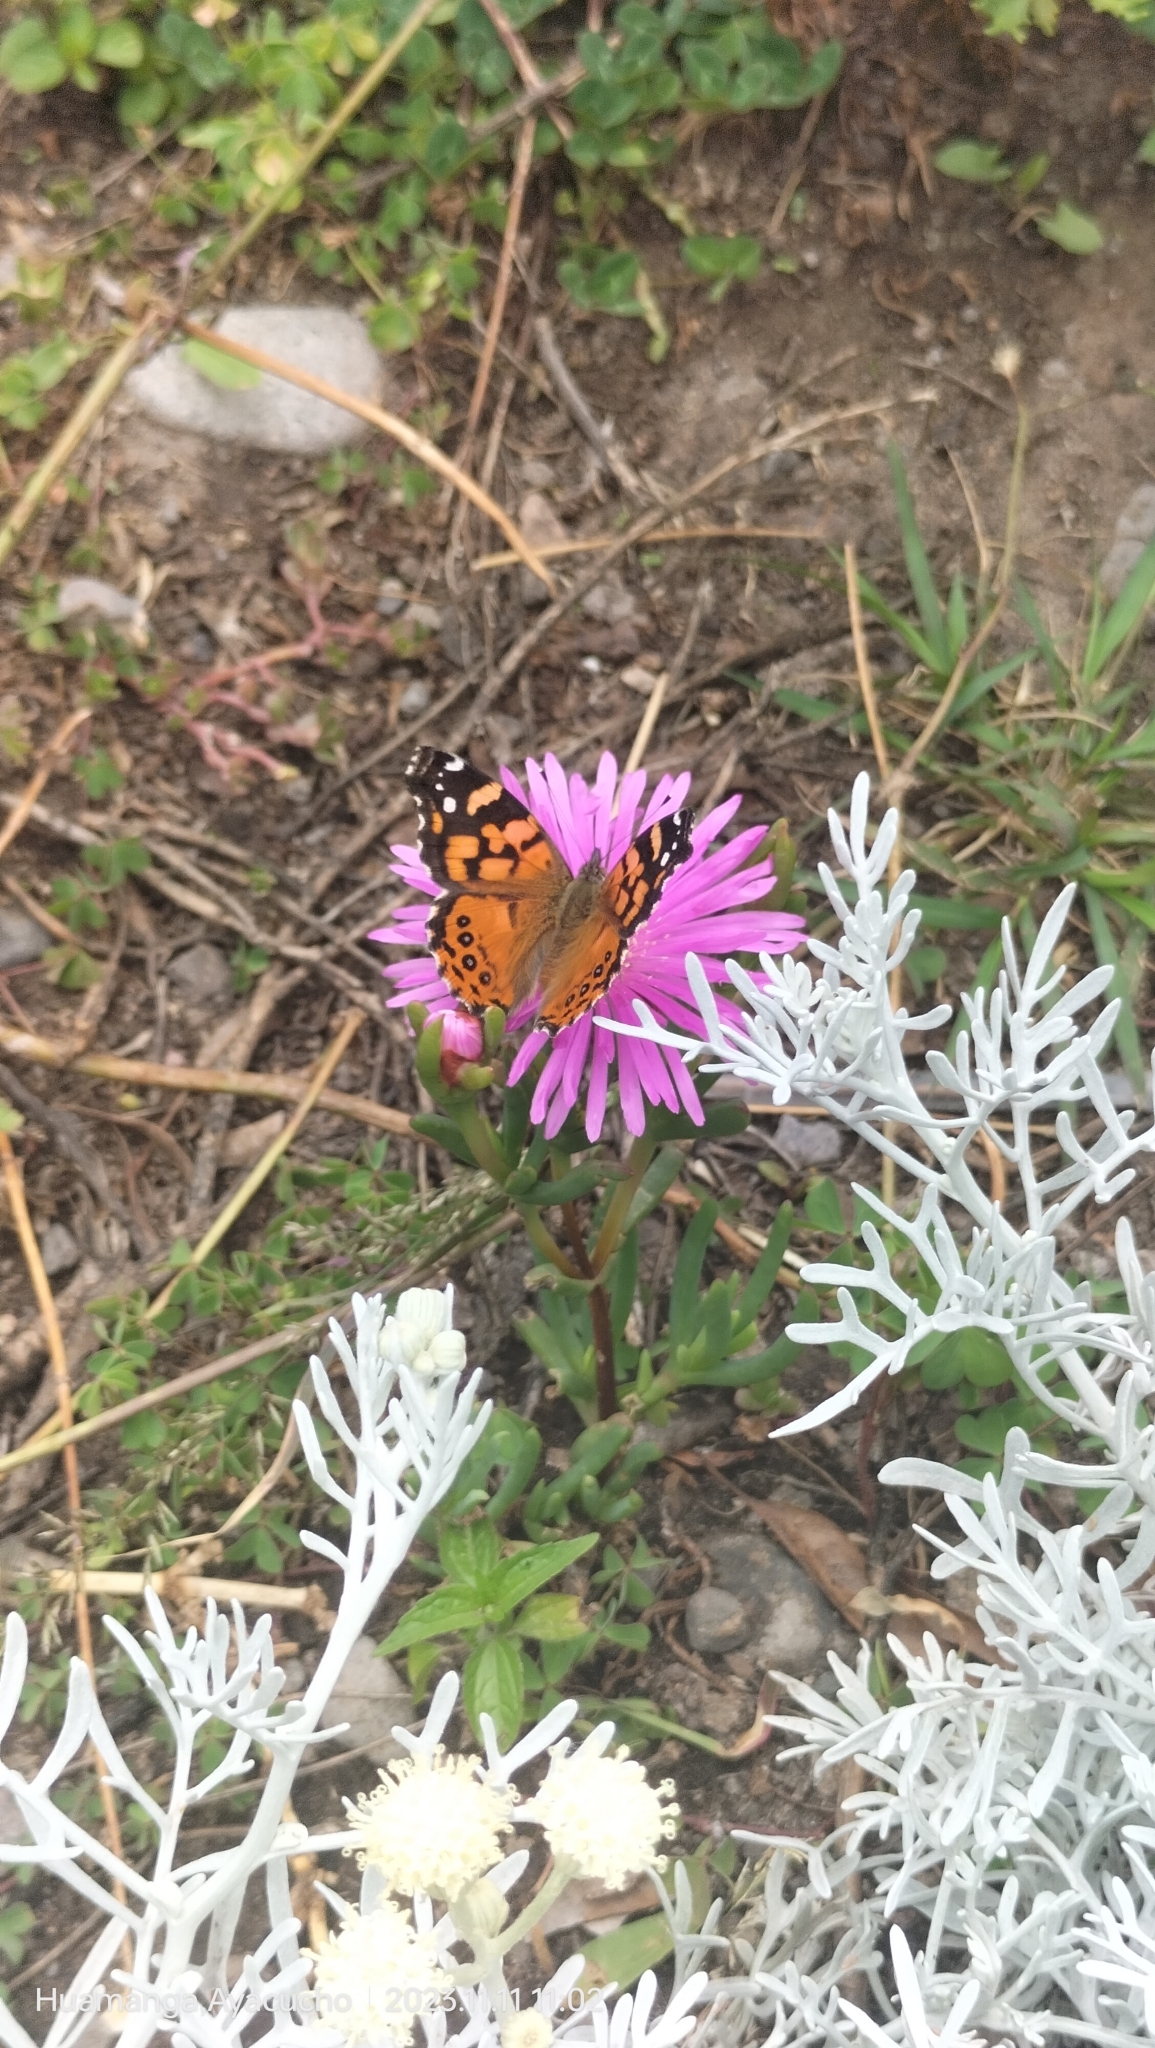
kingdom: Animalia
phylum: Arthropoda
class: Insecta
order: Lepidoptera
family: Nymphalidae
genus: Vanessa
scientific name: Vanessa carye
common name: Subtropical lady
